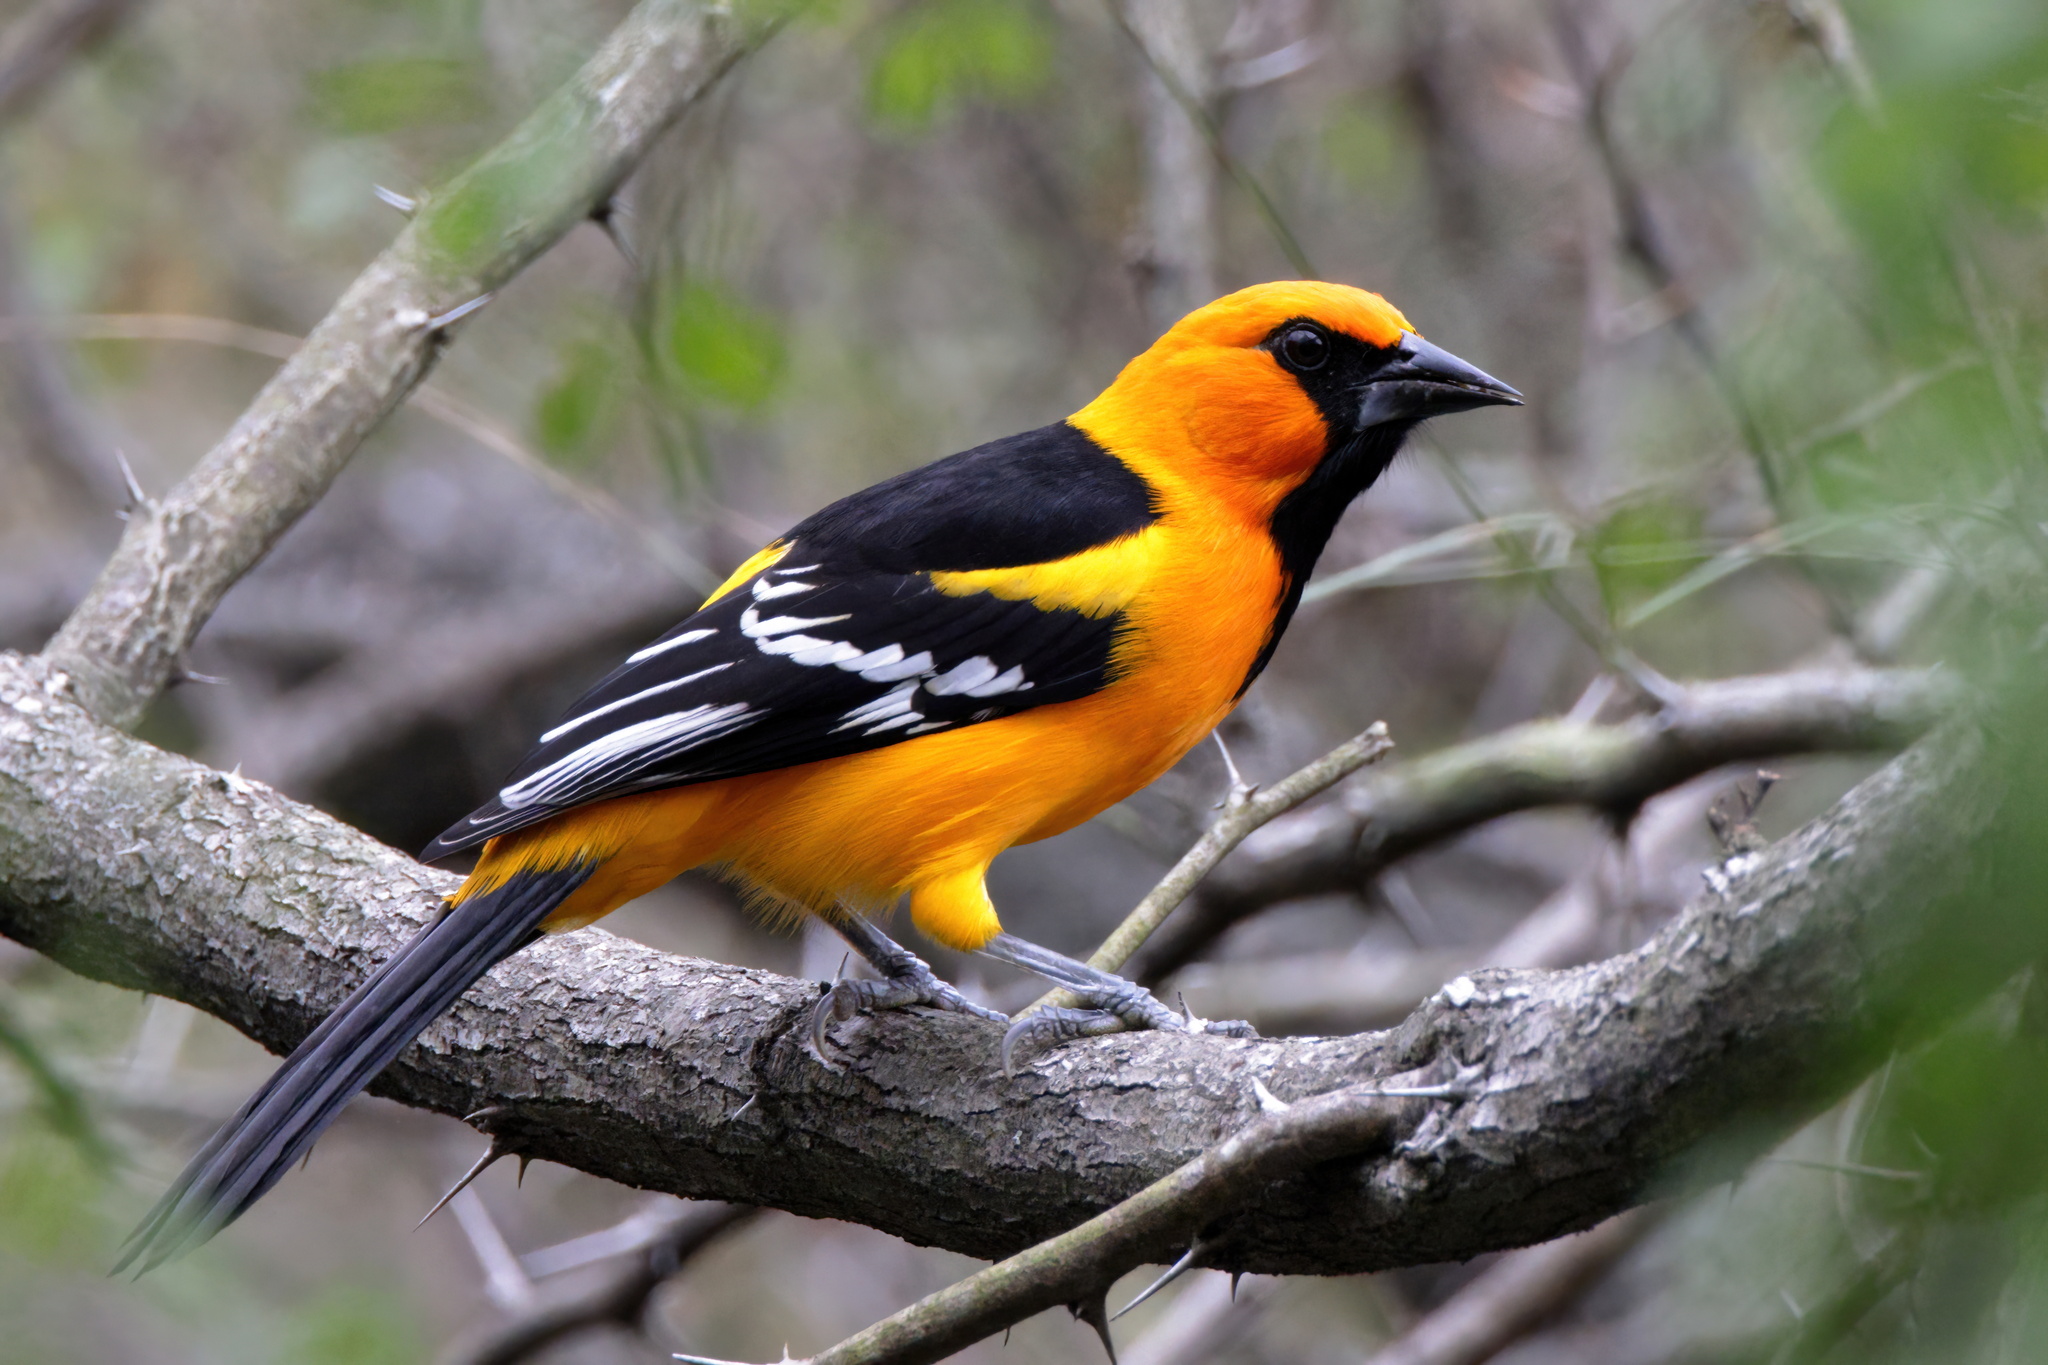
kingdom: Animalia
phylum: Chordata
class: Aves
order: Passeriformes
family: Icteridae
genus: Icterus
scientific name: Icterus gularis
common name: Altamira oriole
